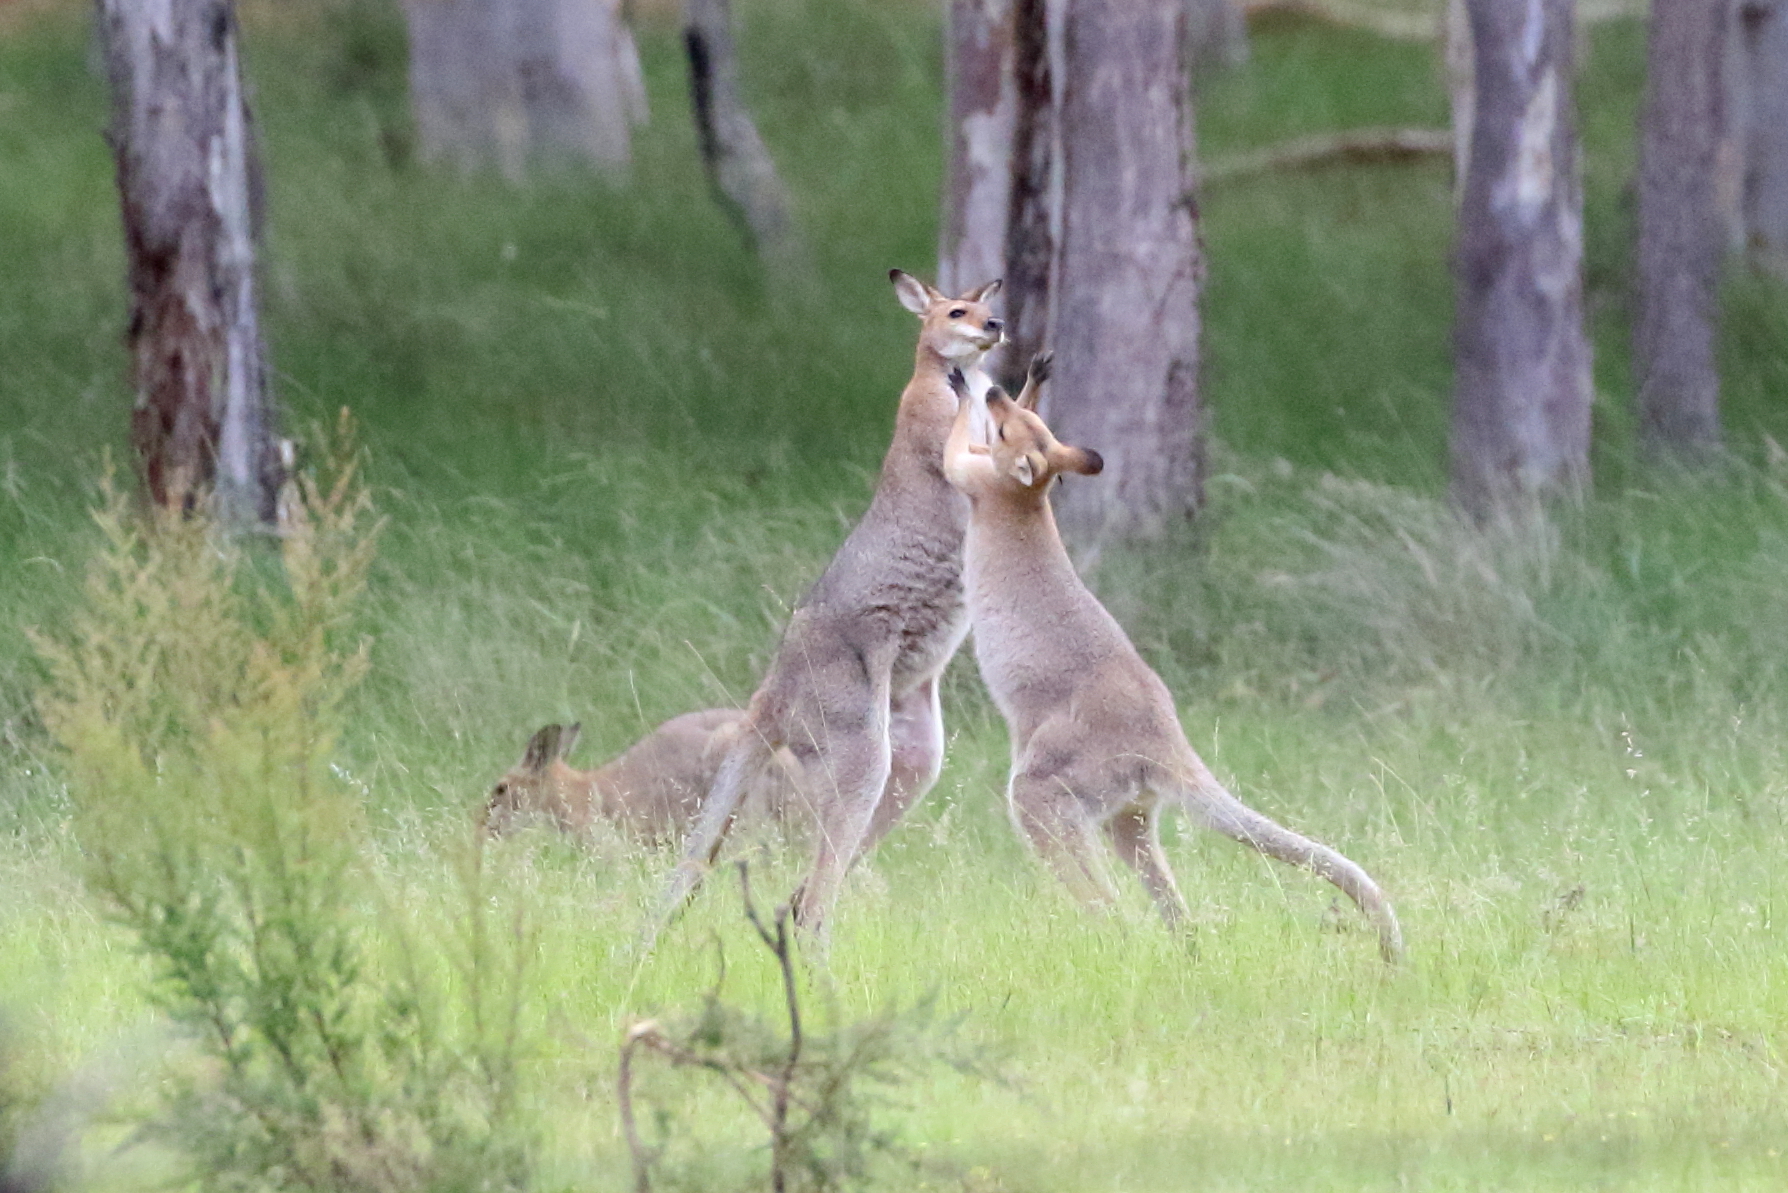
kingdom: Animalia
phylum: Chordata
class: Mammalia
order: Diprotodontia
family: Macropodidae
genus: Notamacropus
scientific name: Notamacropus rufogriseus
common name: Red-necked wallaby
